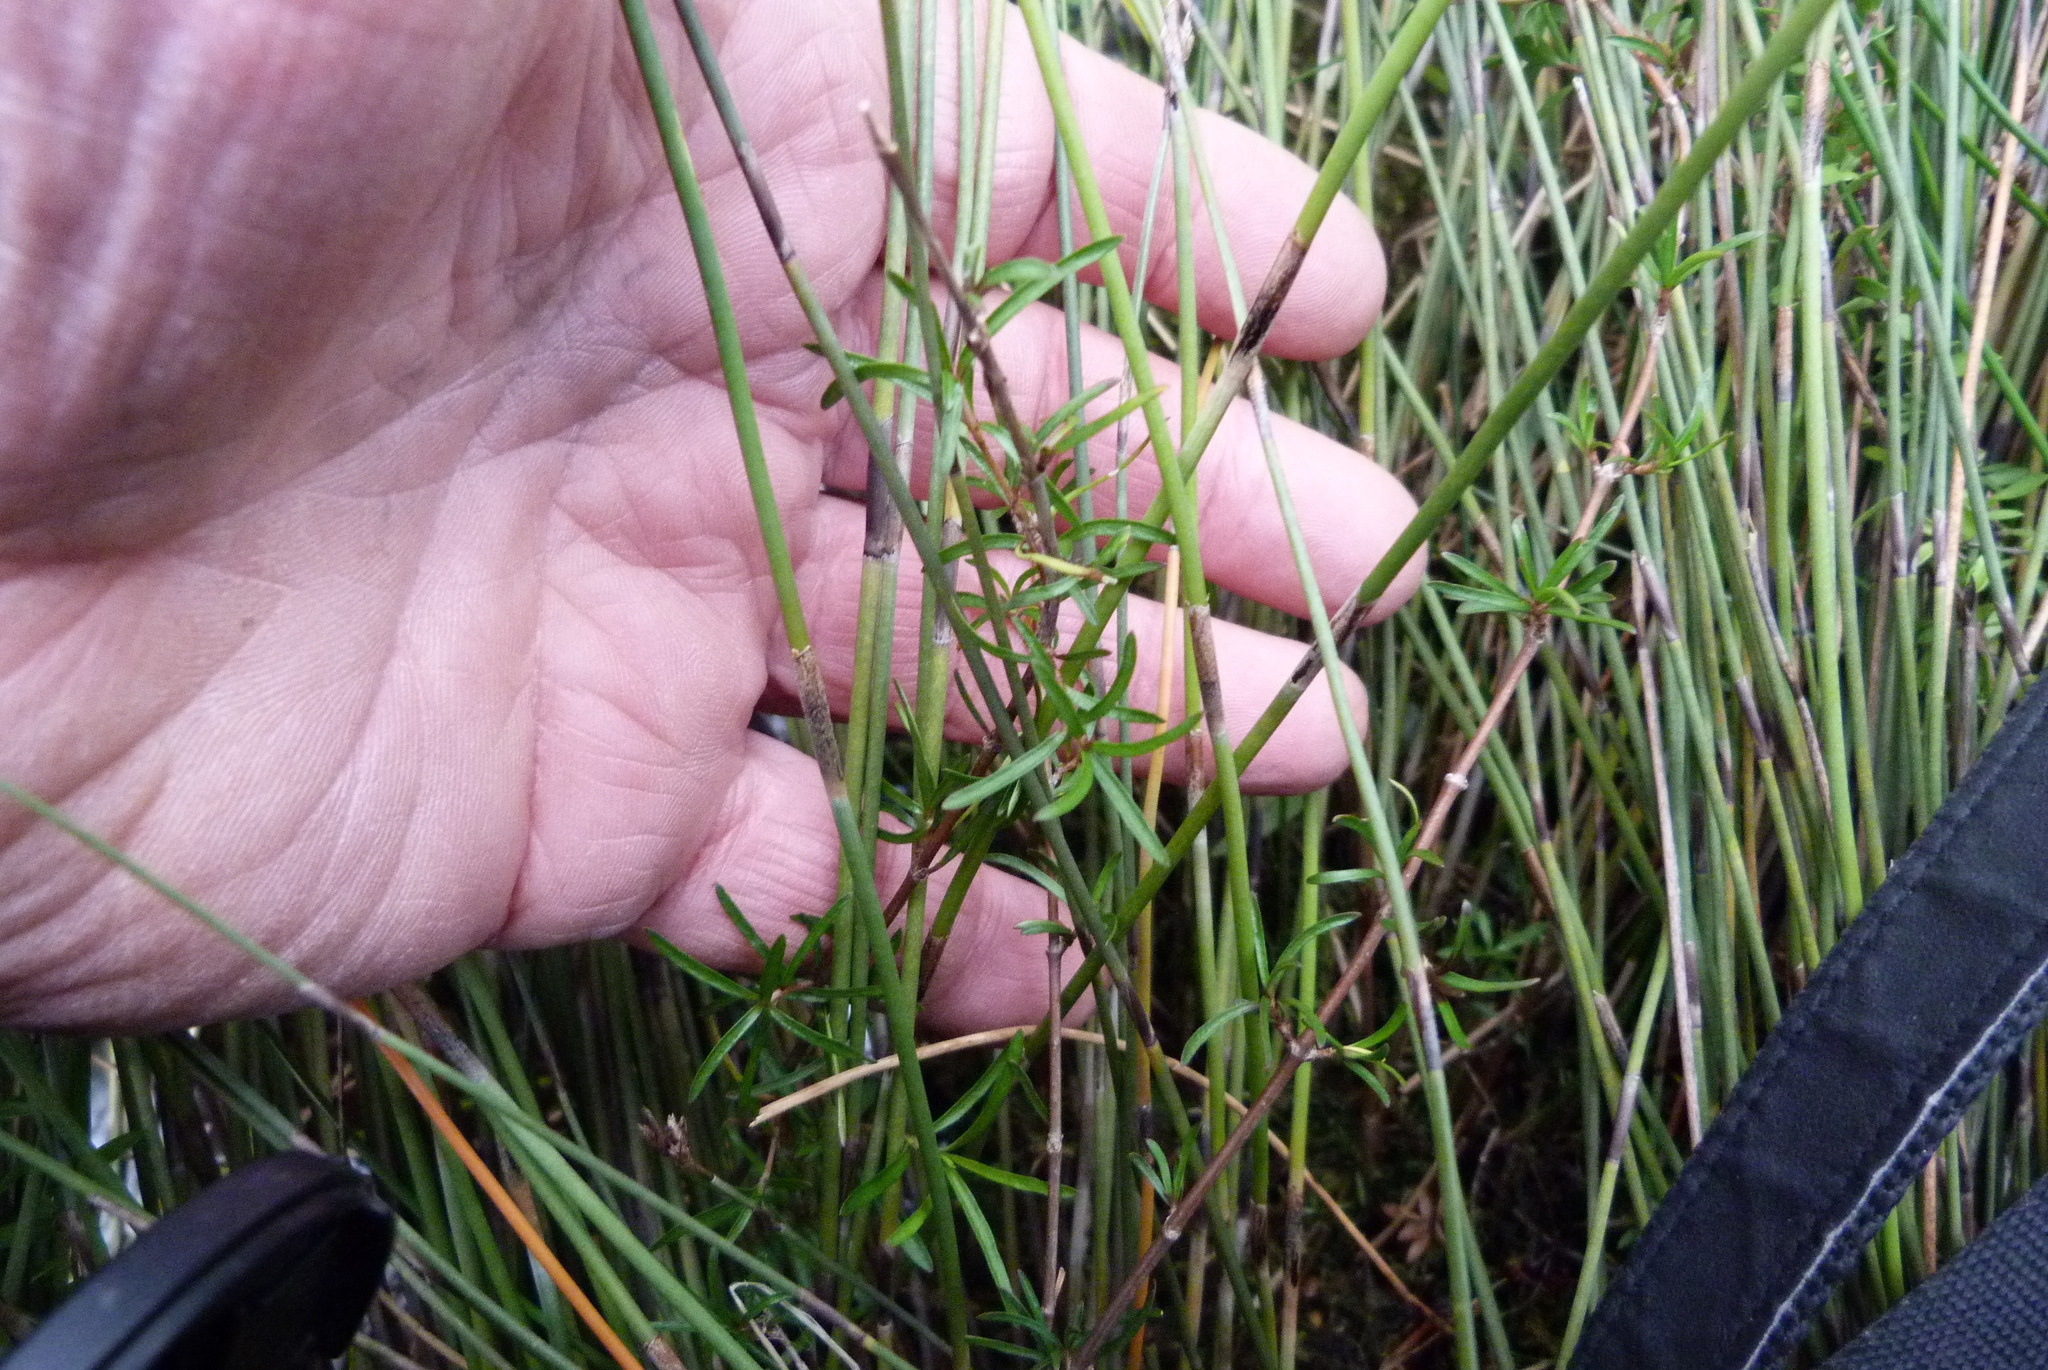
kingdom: Plantae
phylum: Tracheophyta
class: Magnoliopsida
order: Gentianales
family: Rubiaceae
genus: Coprosma
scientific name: Coprosma elatirioides
